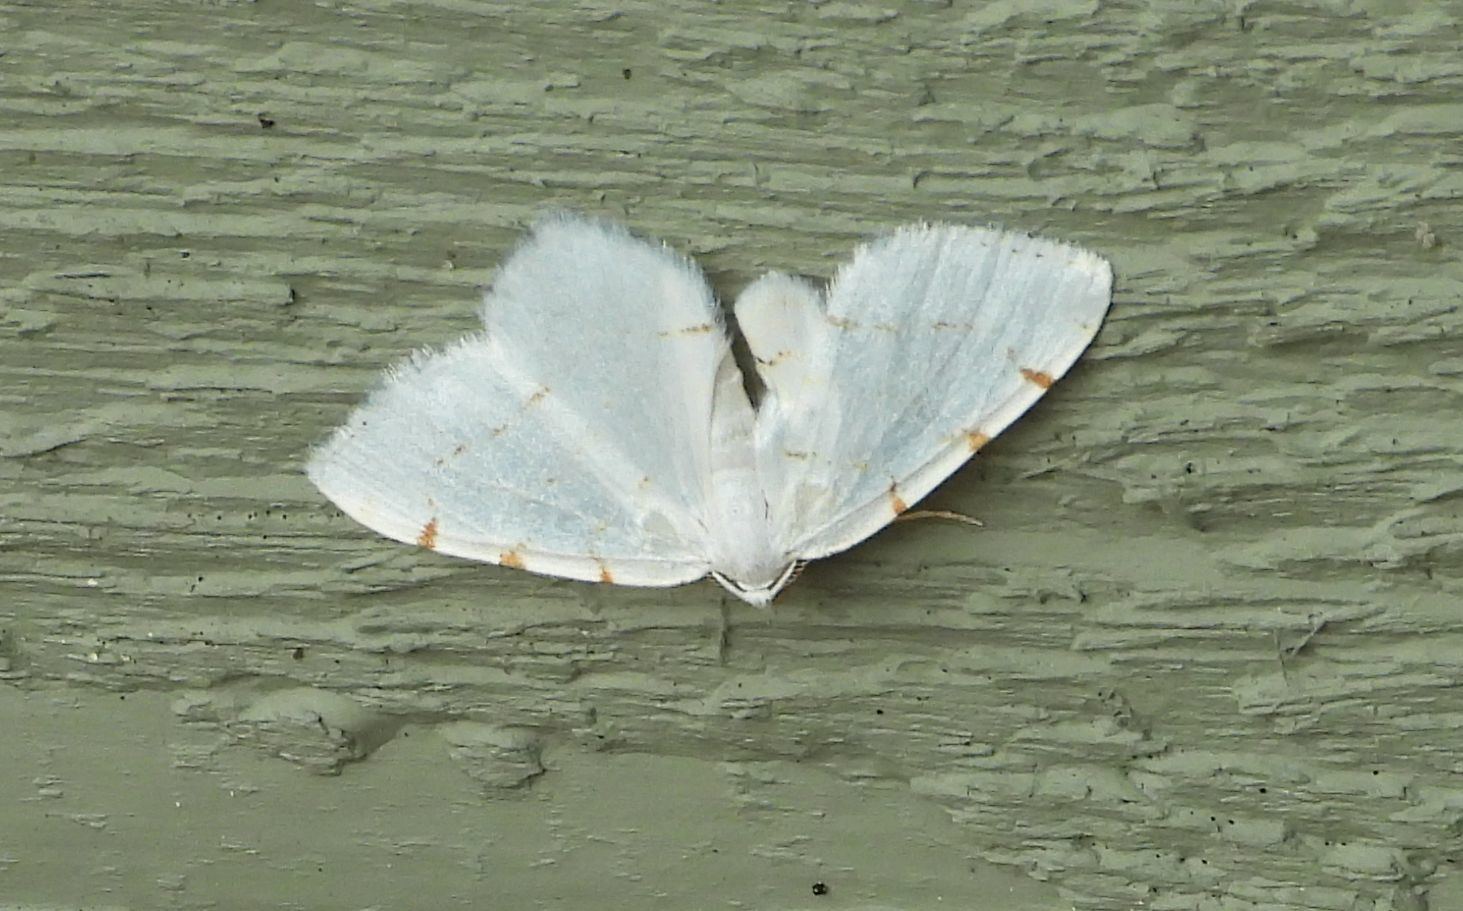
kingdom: Animalia
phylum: Arthropoda
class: Insecta
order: Lepidoptera
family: Geometridae
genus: Macaria
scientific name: Macaria pustularia
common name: Lesser maple spanworm moth
